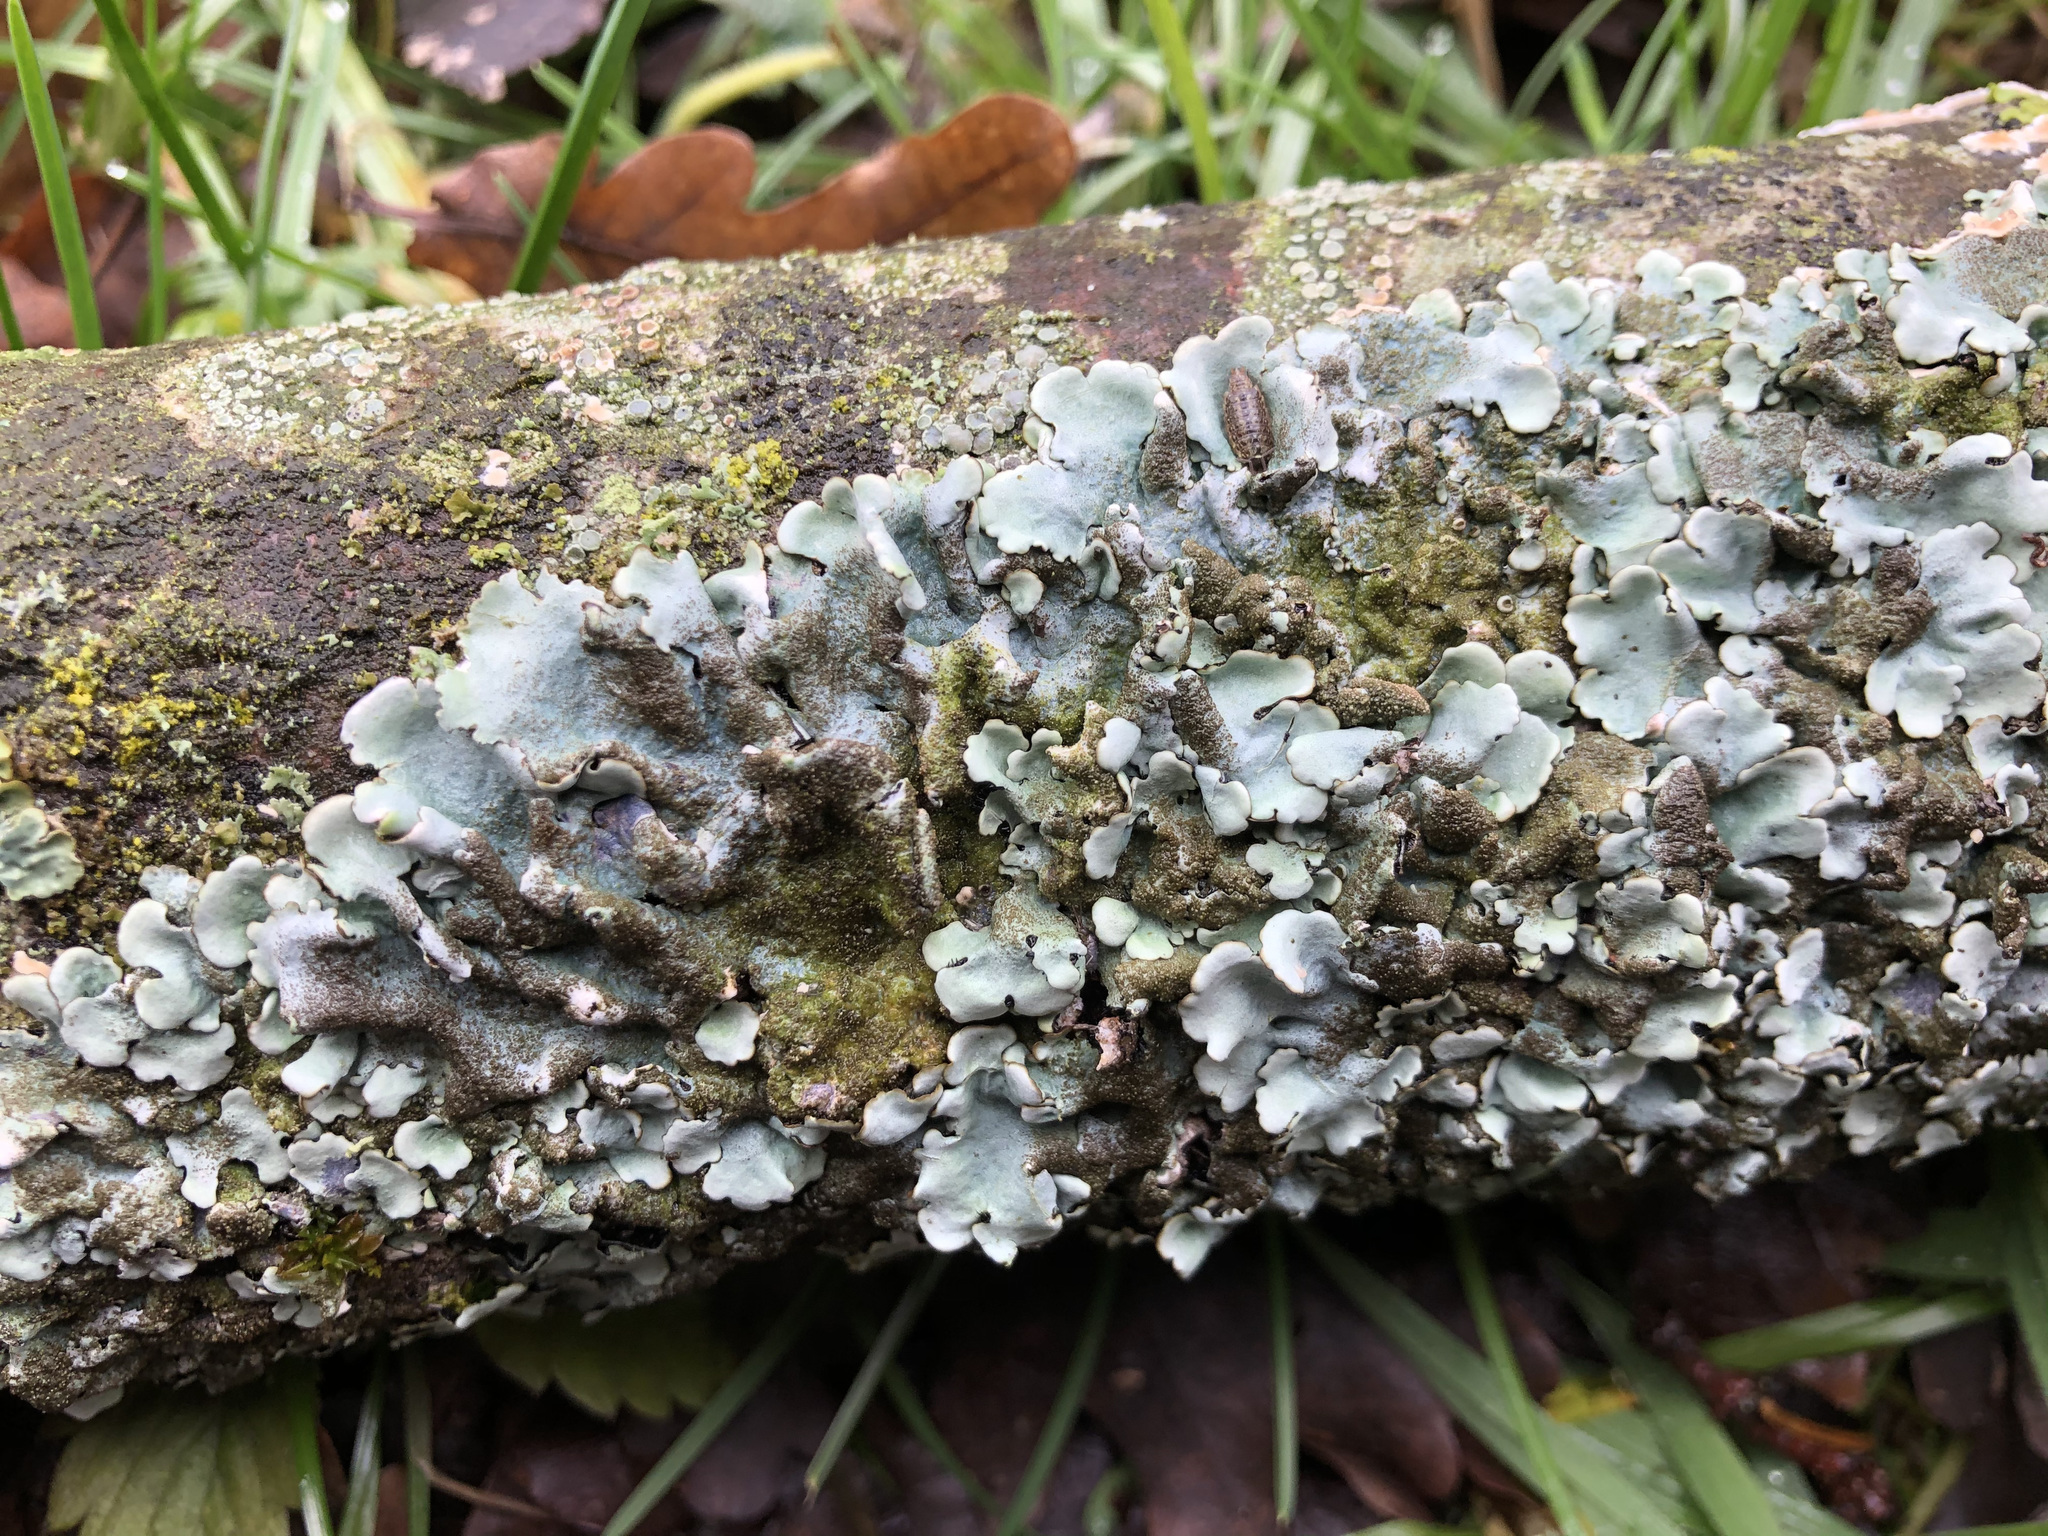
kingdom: Fungi
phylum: Ascomycota
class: Lecanoromycetes
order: Lecanorales
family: Parmeliaceae
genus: Parmelina
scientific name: Parmelina tiliacea
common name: Linden shield lichen
